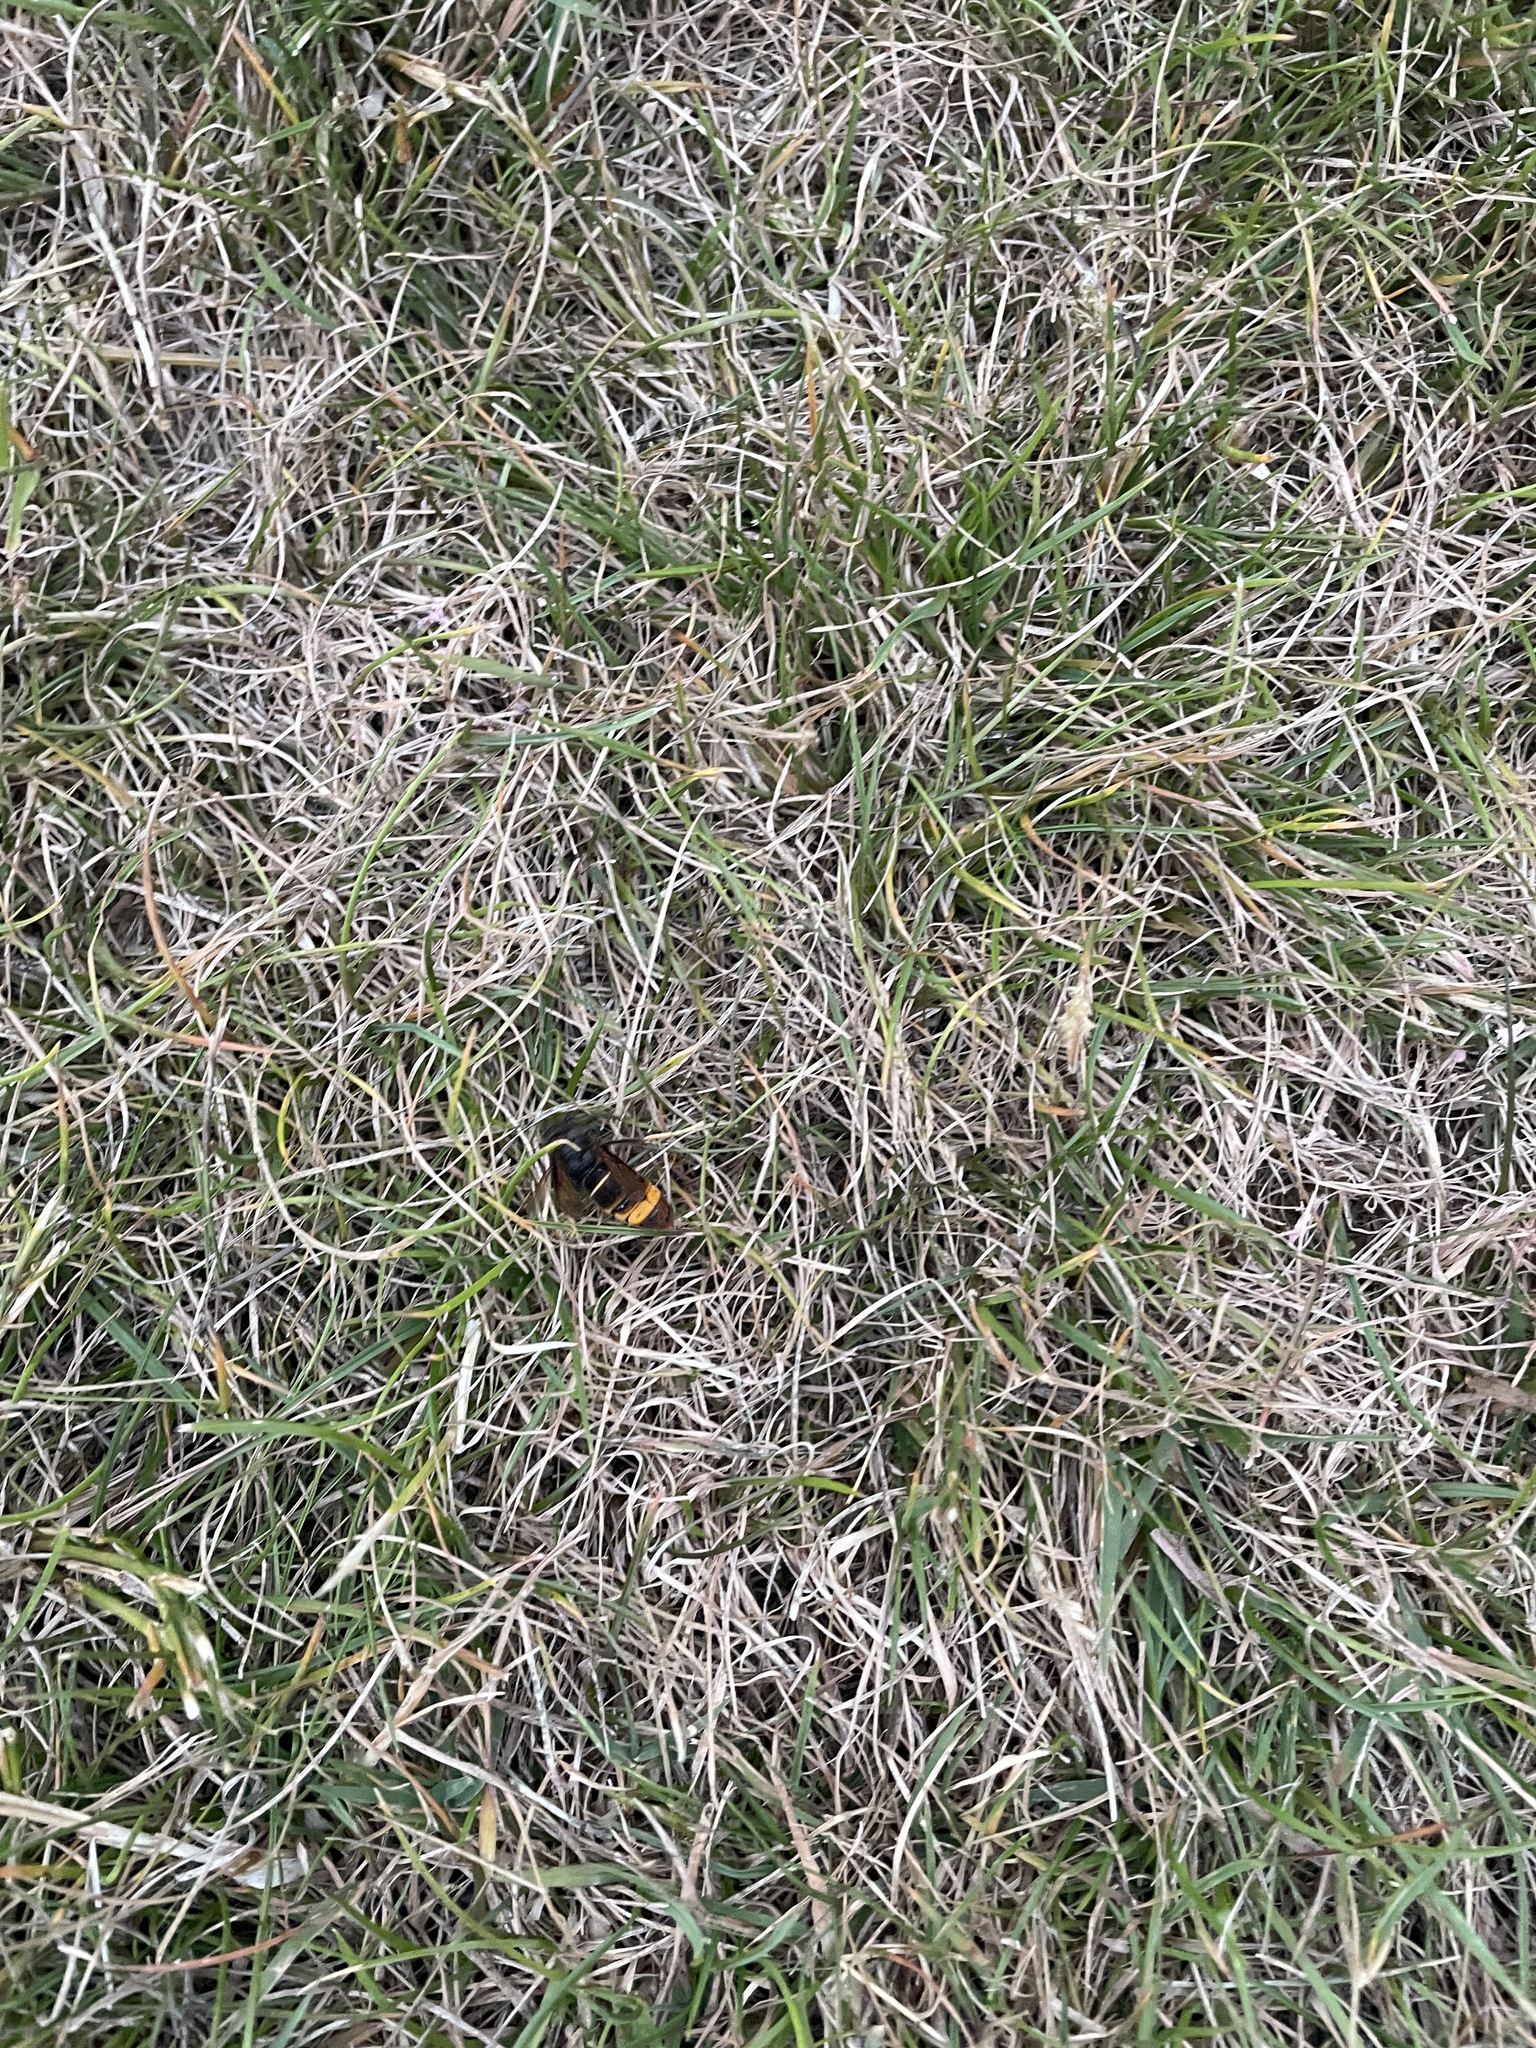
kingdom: Animalia
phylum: Arthropoda
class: Insecta
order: Hymenoptera
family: Vespidae
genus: Vespa
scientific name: Vespa velutina
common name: Asian hornet
